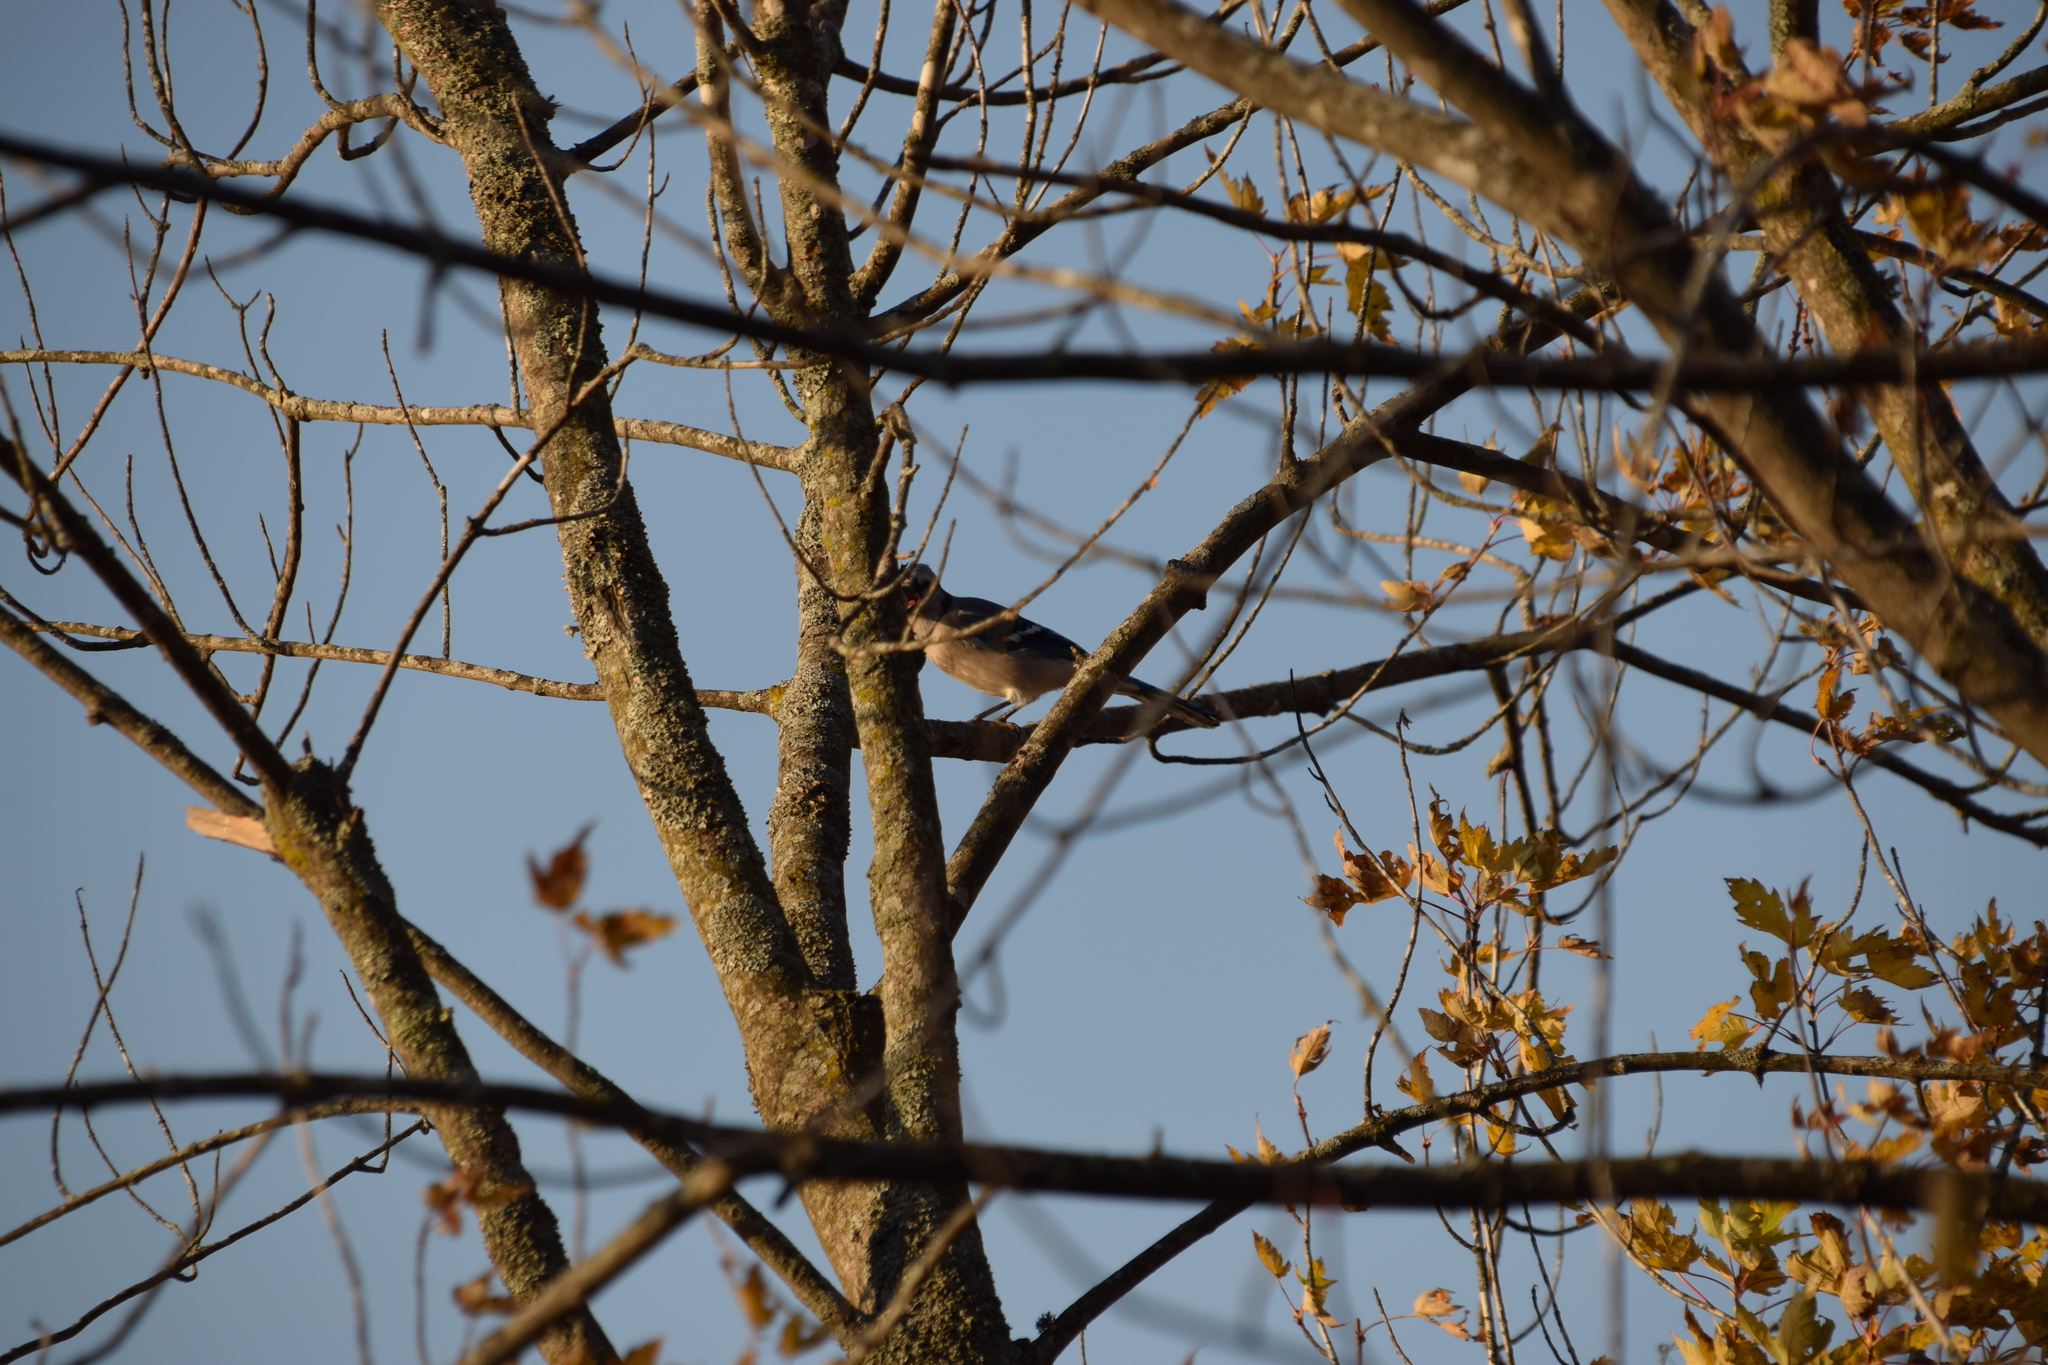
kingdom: Animalia
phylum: Chordata
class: Aves
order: Passeriformes
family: Corvidae
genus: Cyanocitta
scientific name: Cyanocitta cristata
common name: Blue jay
